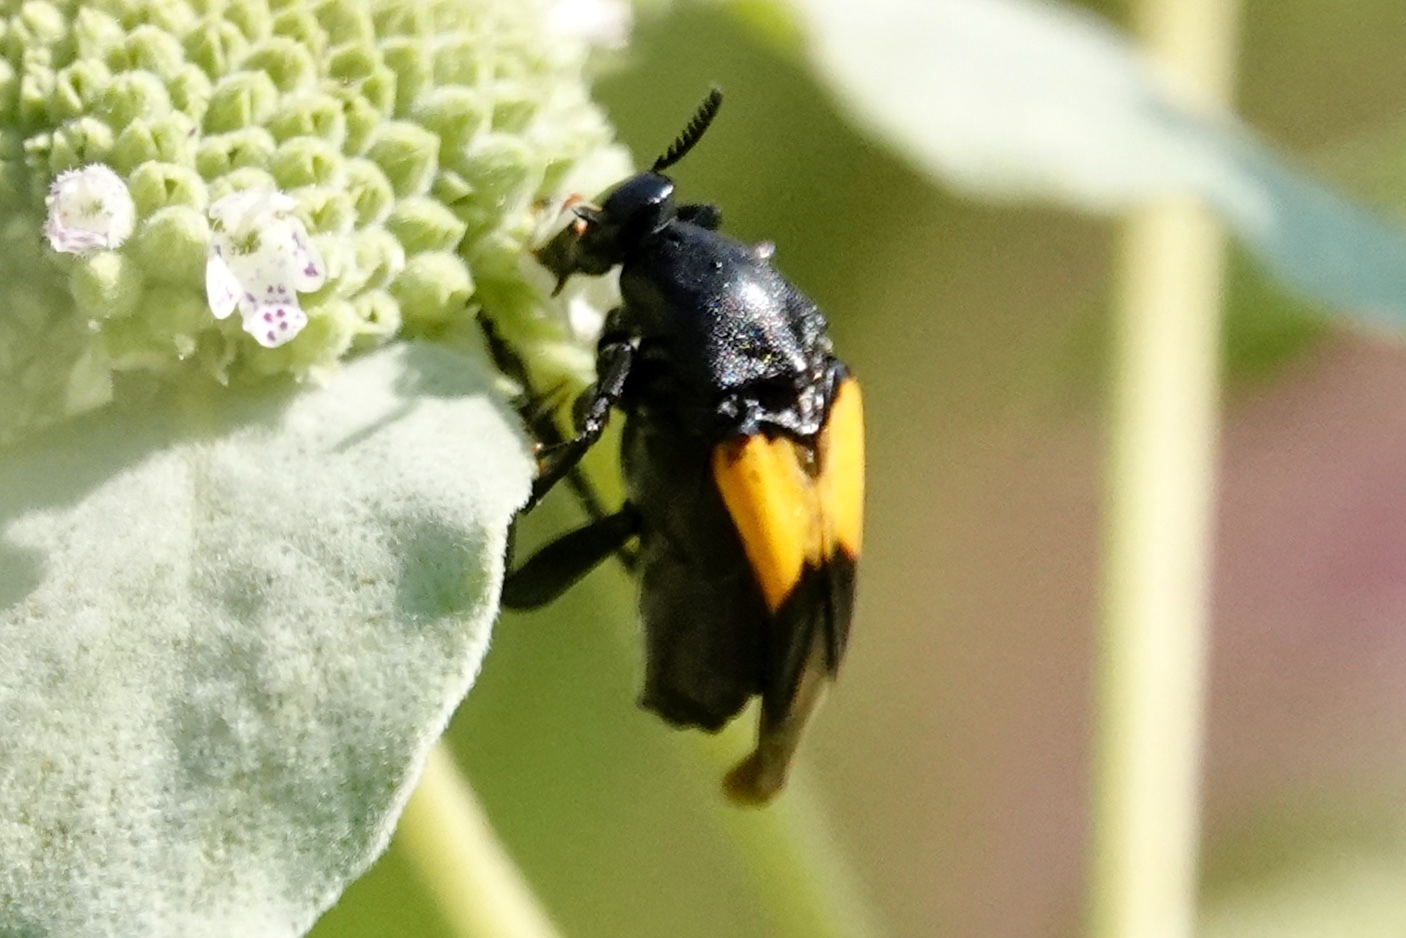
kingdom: Animalia
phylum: Arthropoda
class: Insecta
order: Coleoptera
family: Ripiphoridae
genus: Macrosiagon
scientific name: Macrosiagon dimidiata
